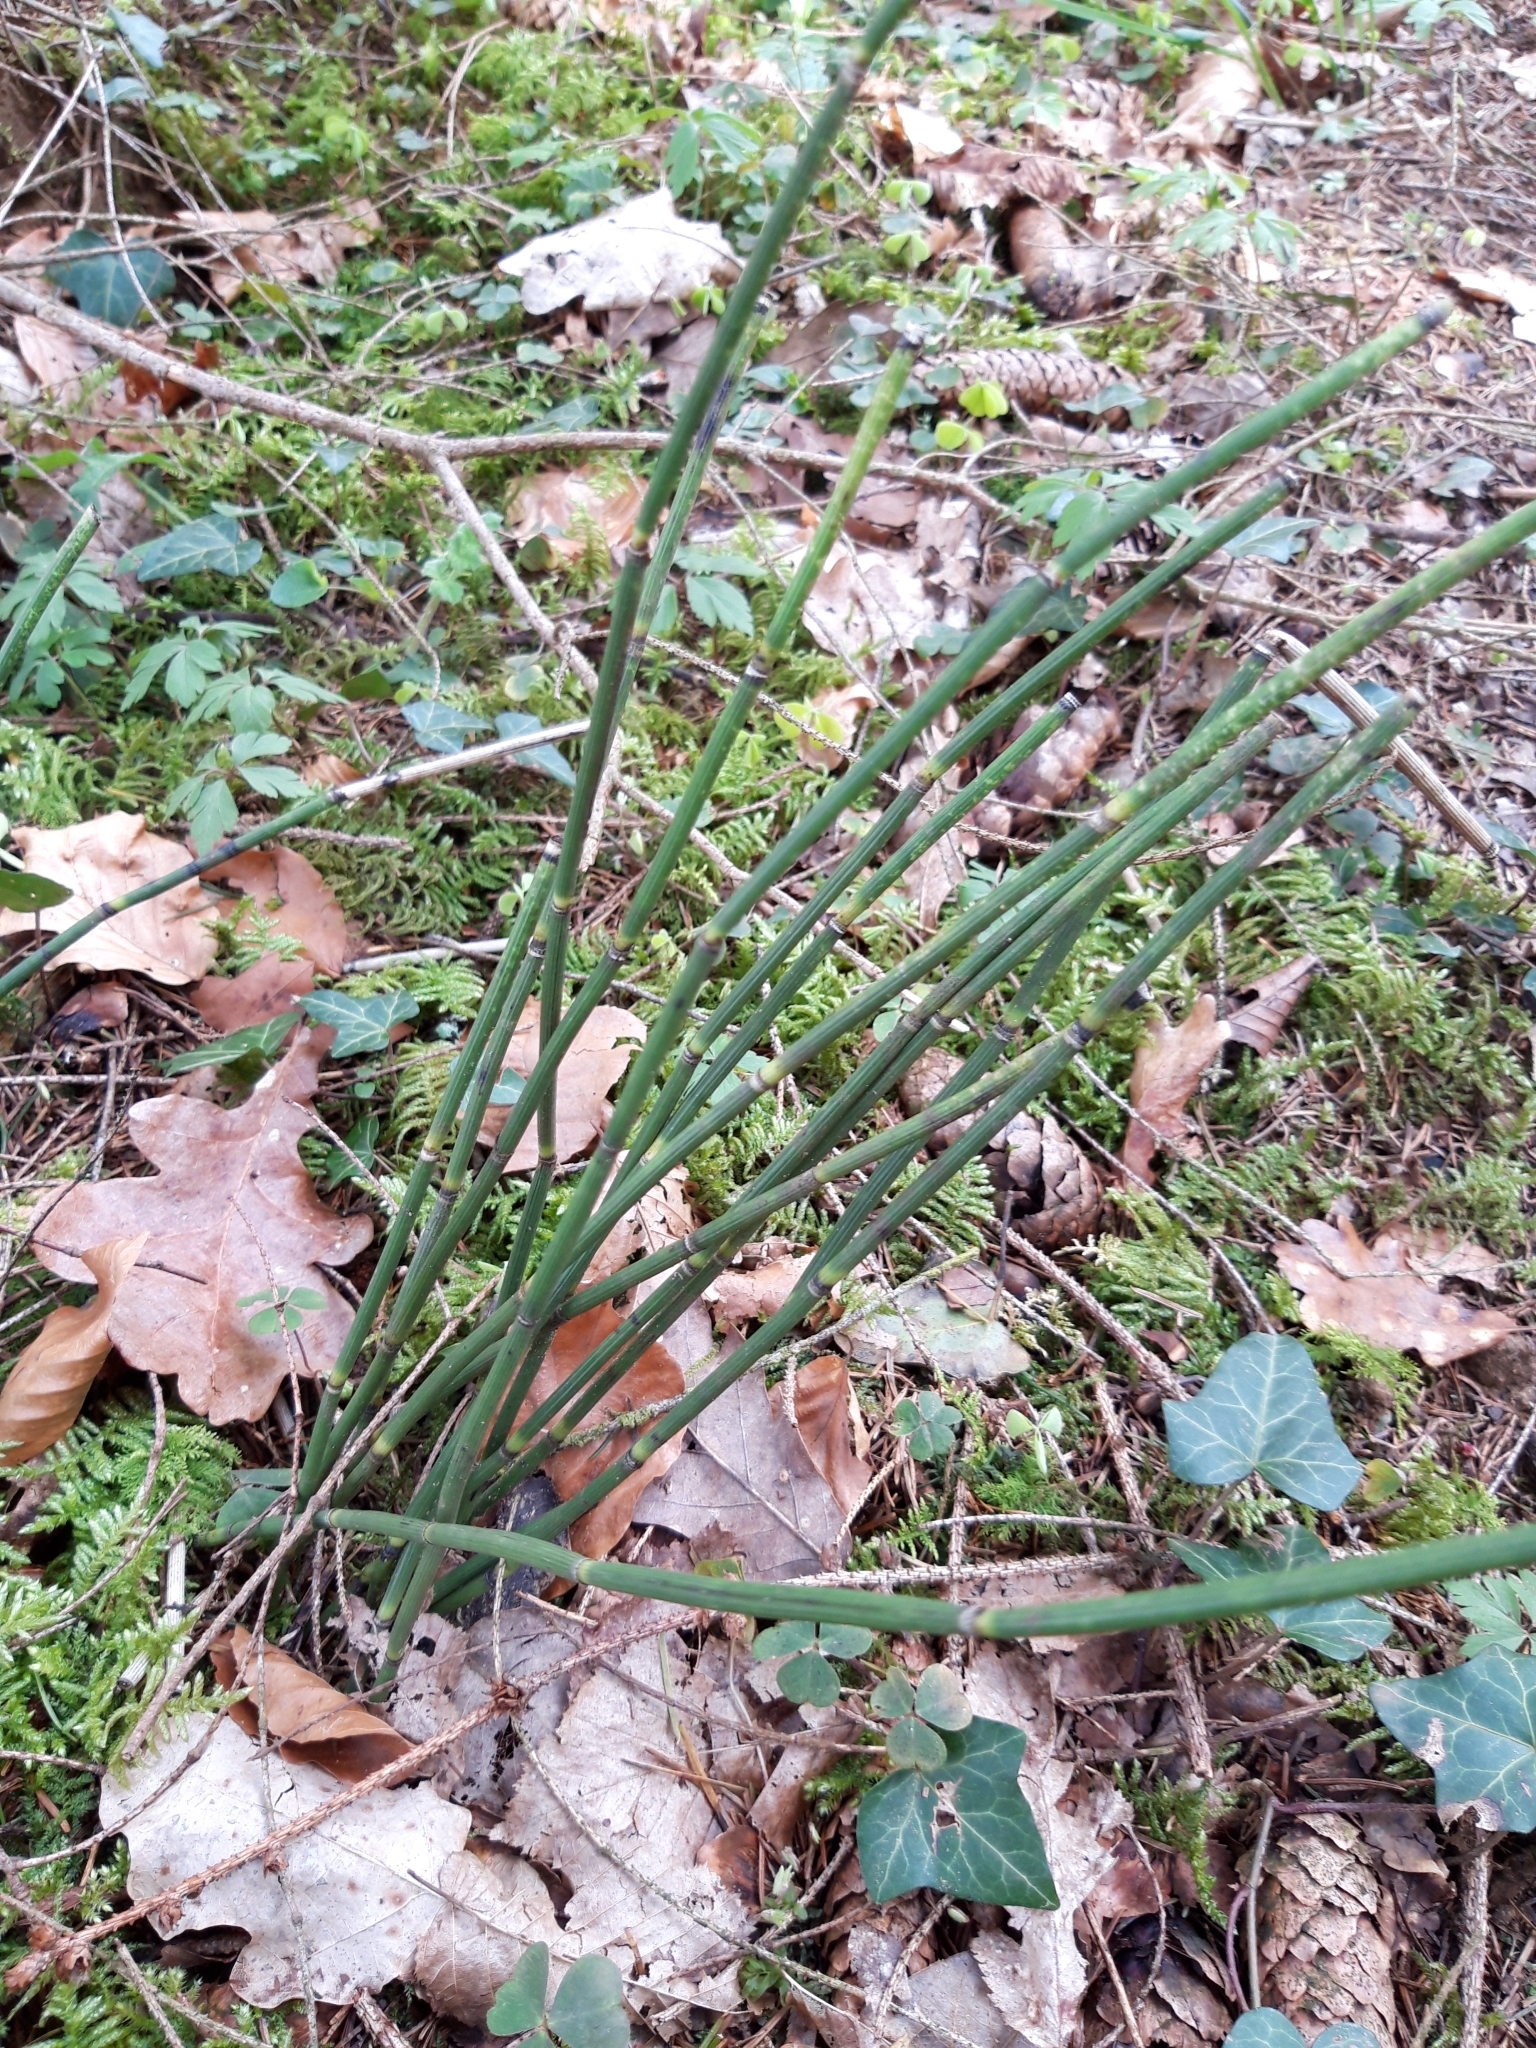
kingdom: Plantae
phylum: Tracheophyta
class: Polypodiopsida
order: Equisetales
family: Equisetaceae
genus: Equisetum
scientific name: Equisetum hyemale
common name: Rough horsetail
